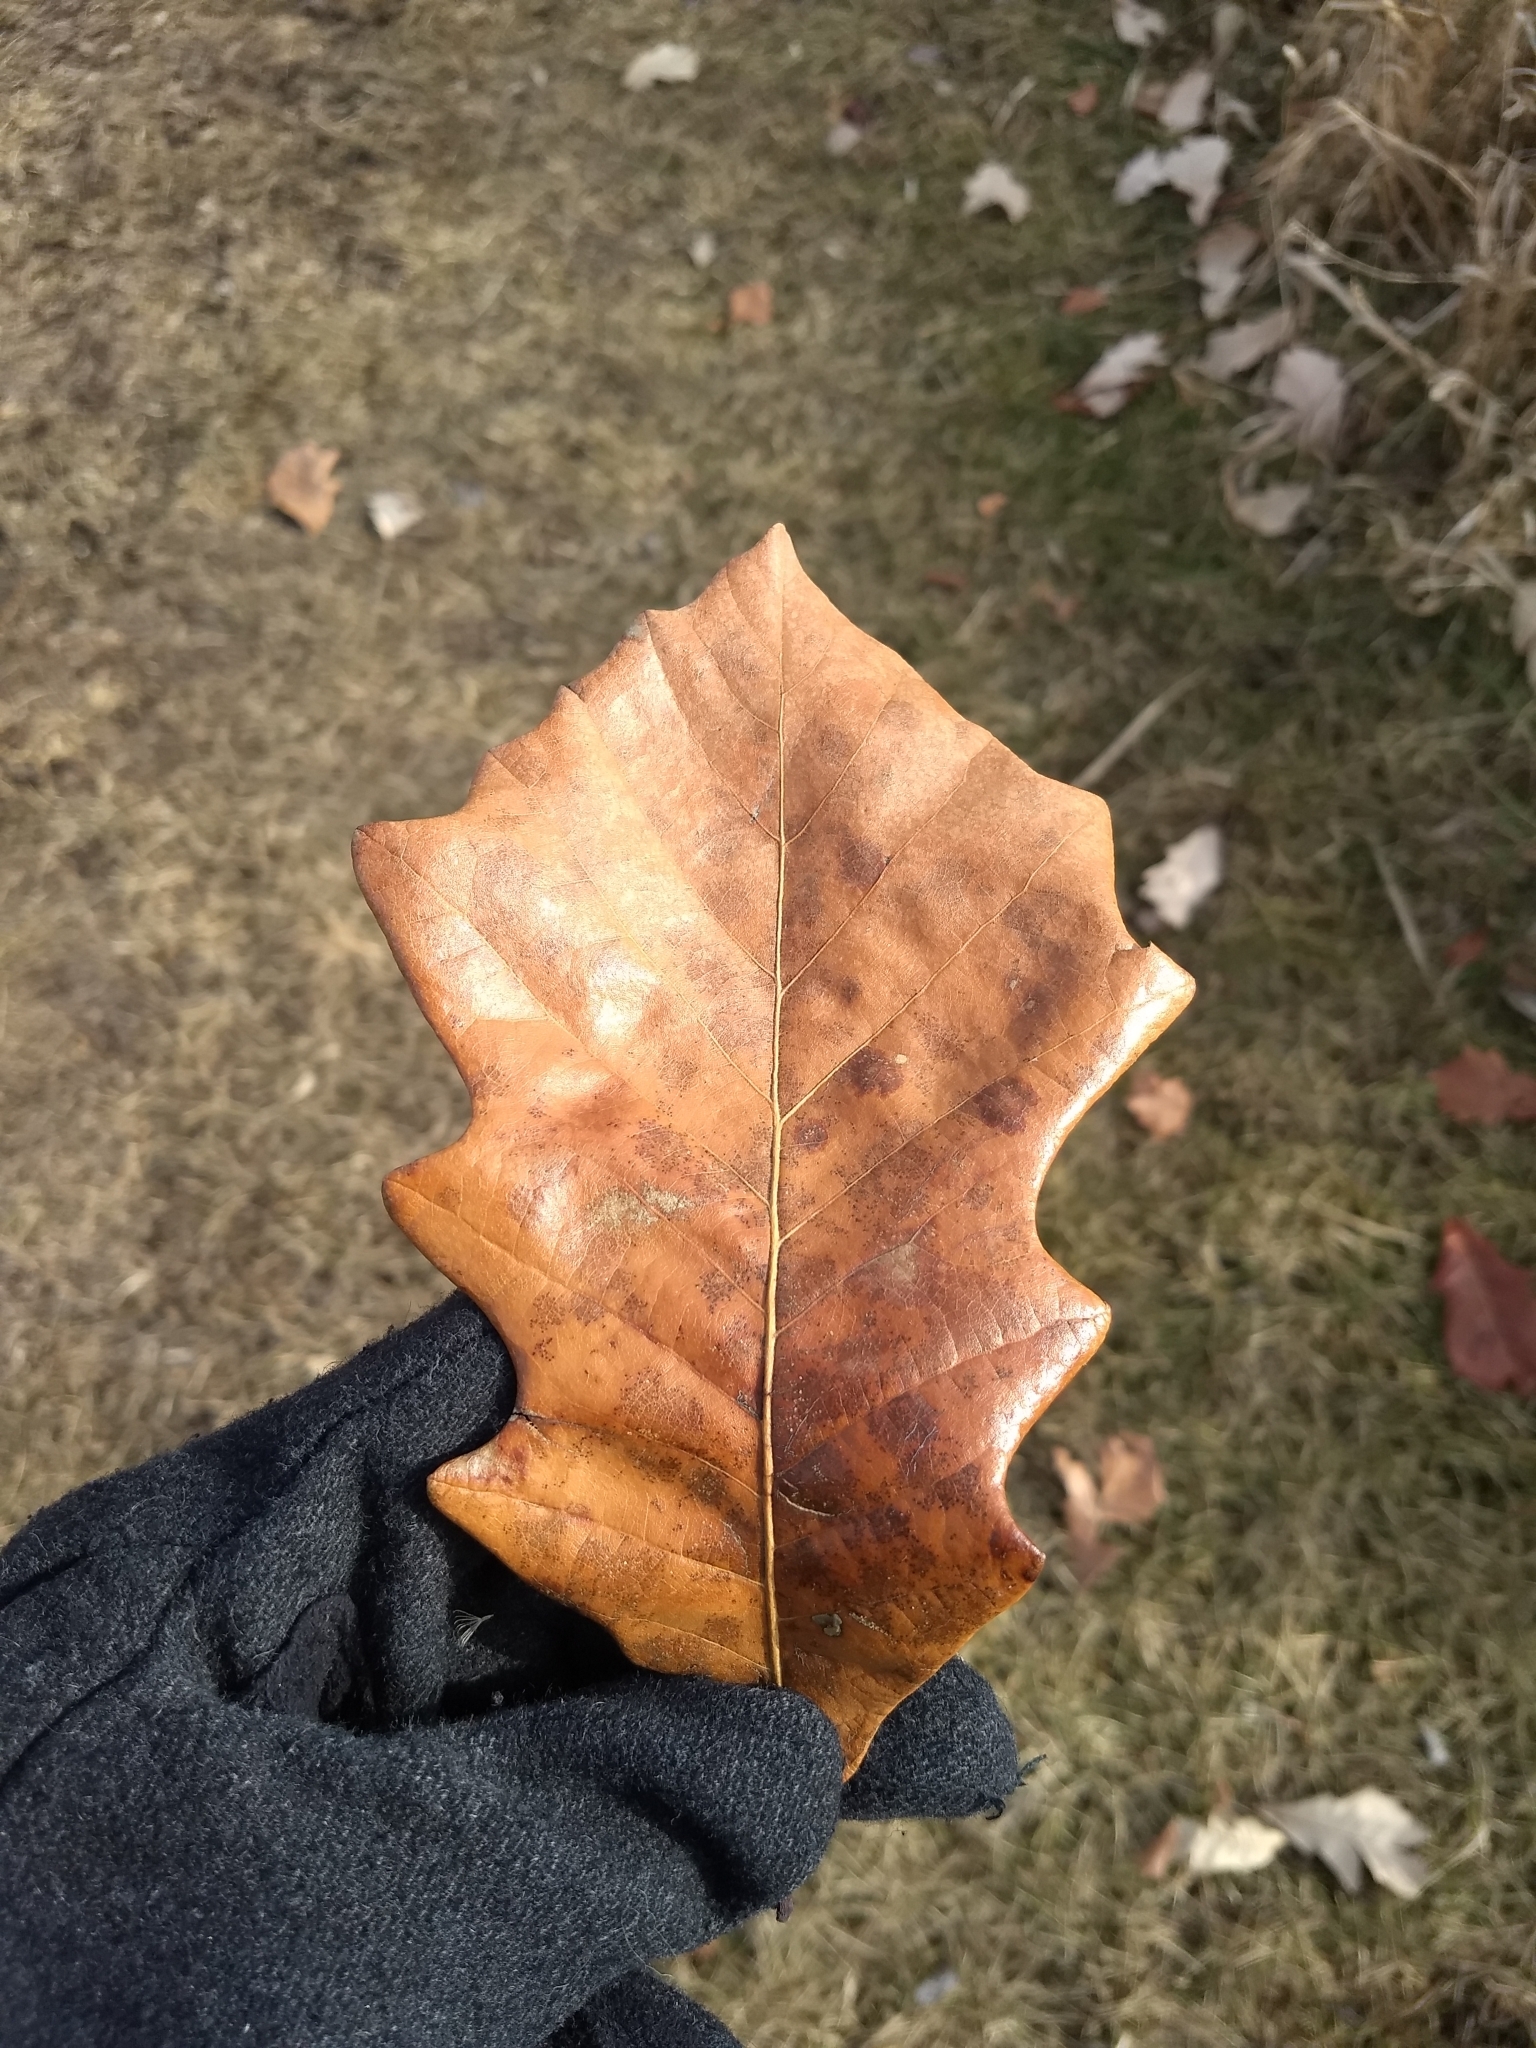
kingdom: Plantae
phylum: Tracheophyta
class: Magnoliopsida
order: Fagales
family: Fagaceae
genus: Quercus
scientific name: Quercus bicolor
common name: Swamp white oak
